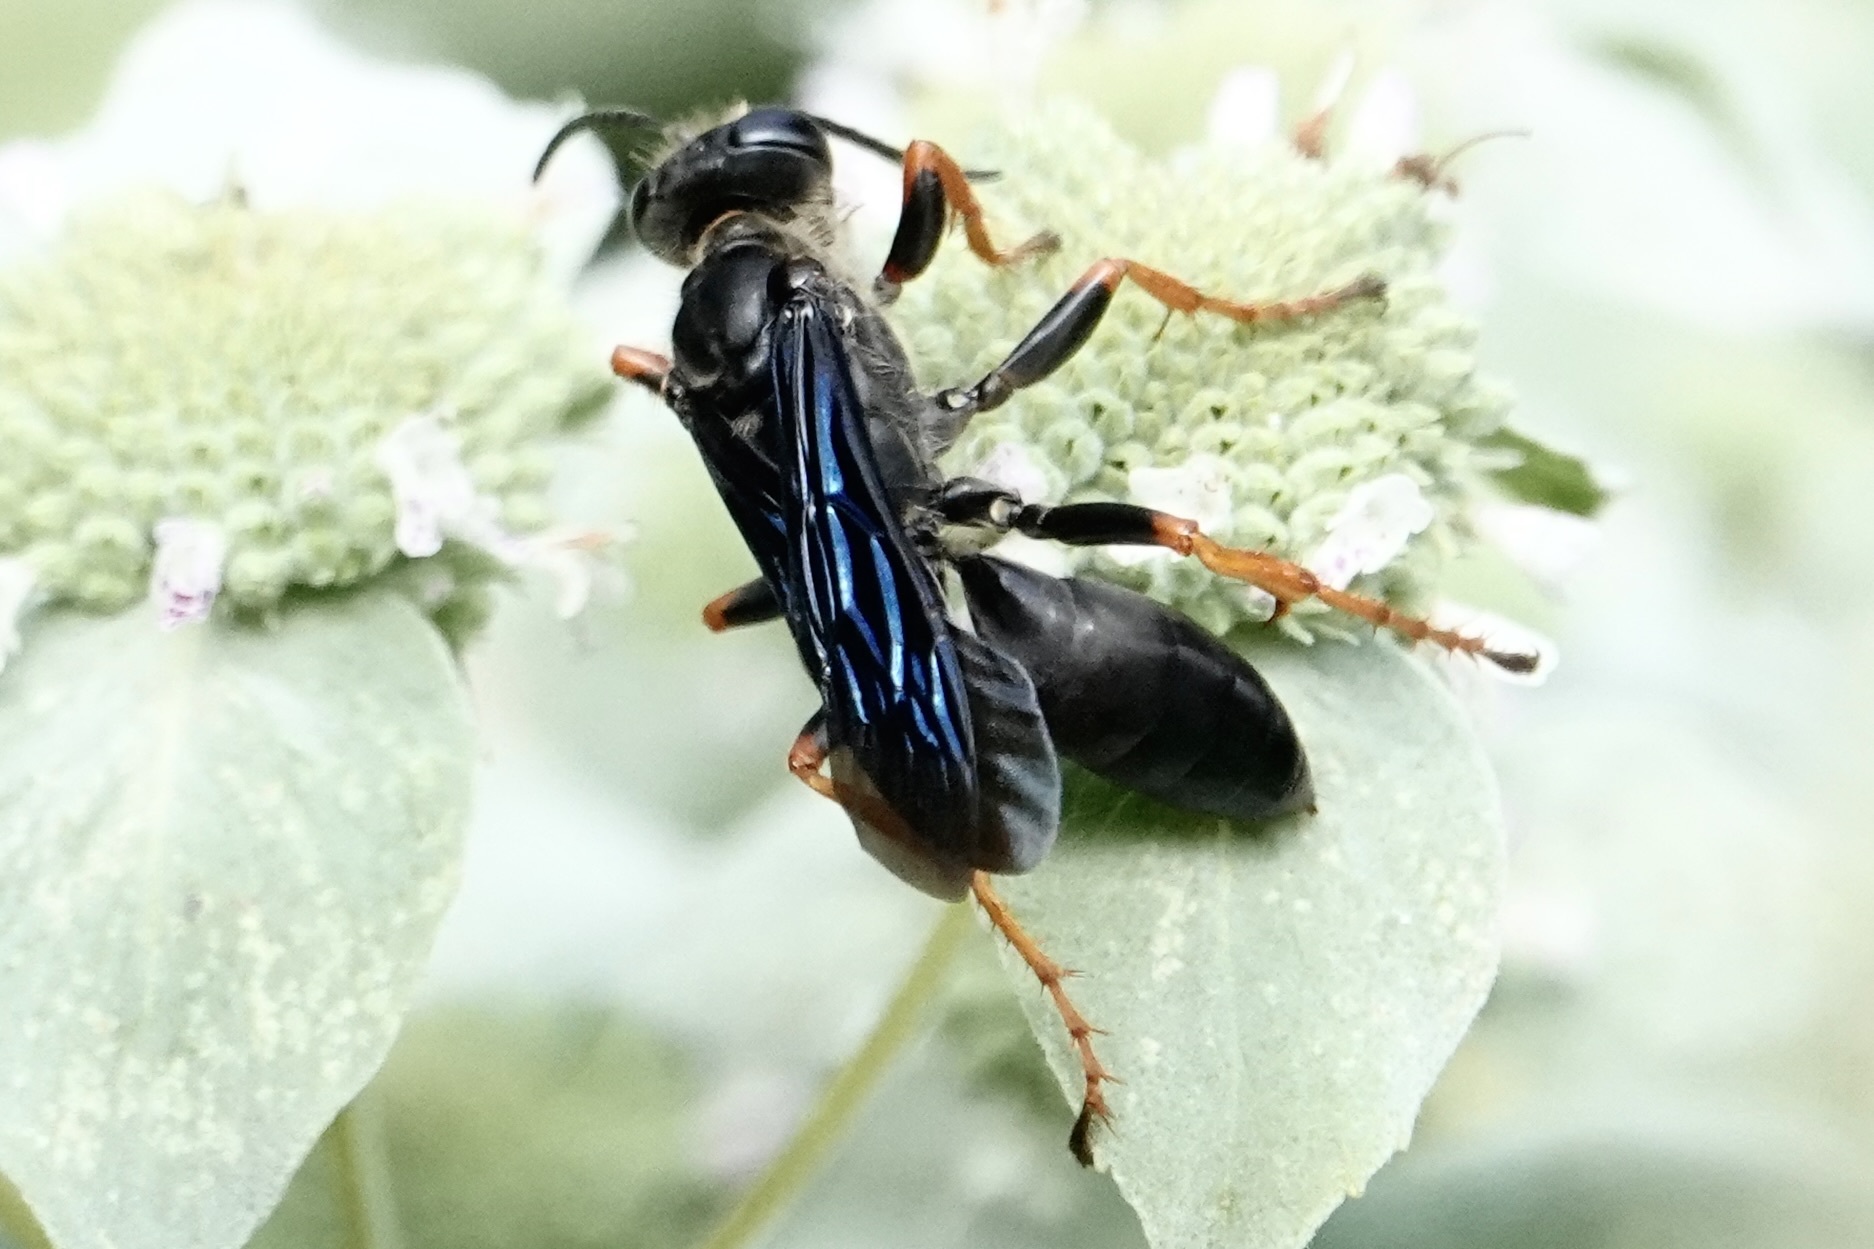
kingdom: Animalia
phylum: Arthropoda
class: Insecta
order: Hymenoptera
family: Sphecidae
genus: Sphex
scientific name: Sphex nudus
